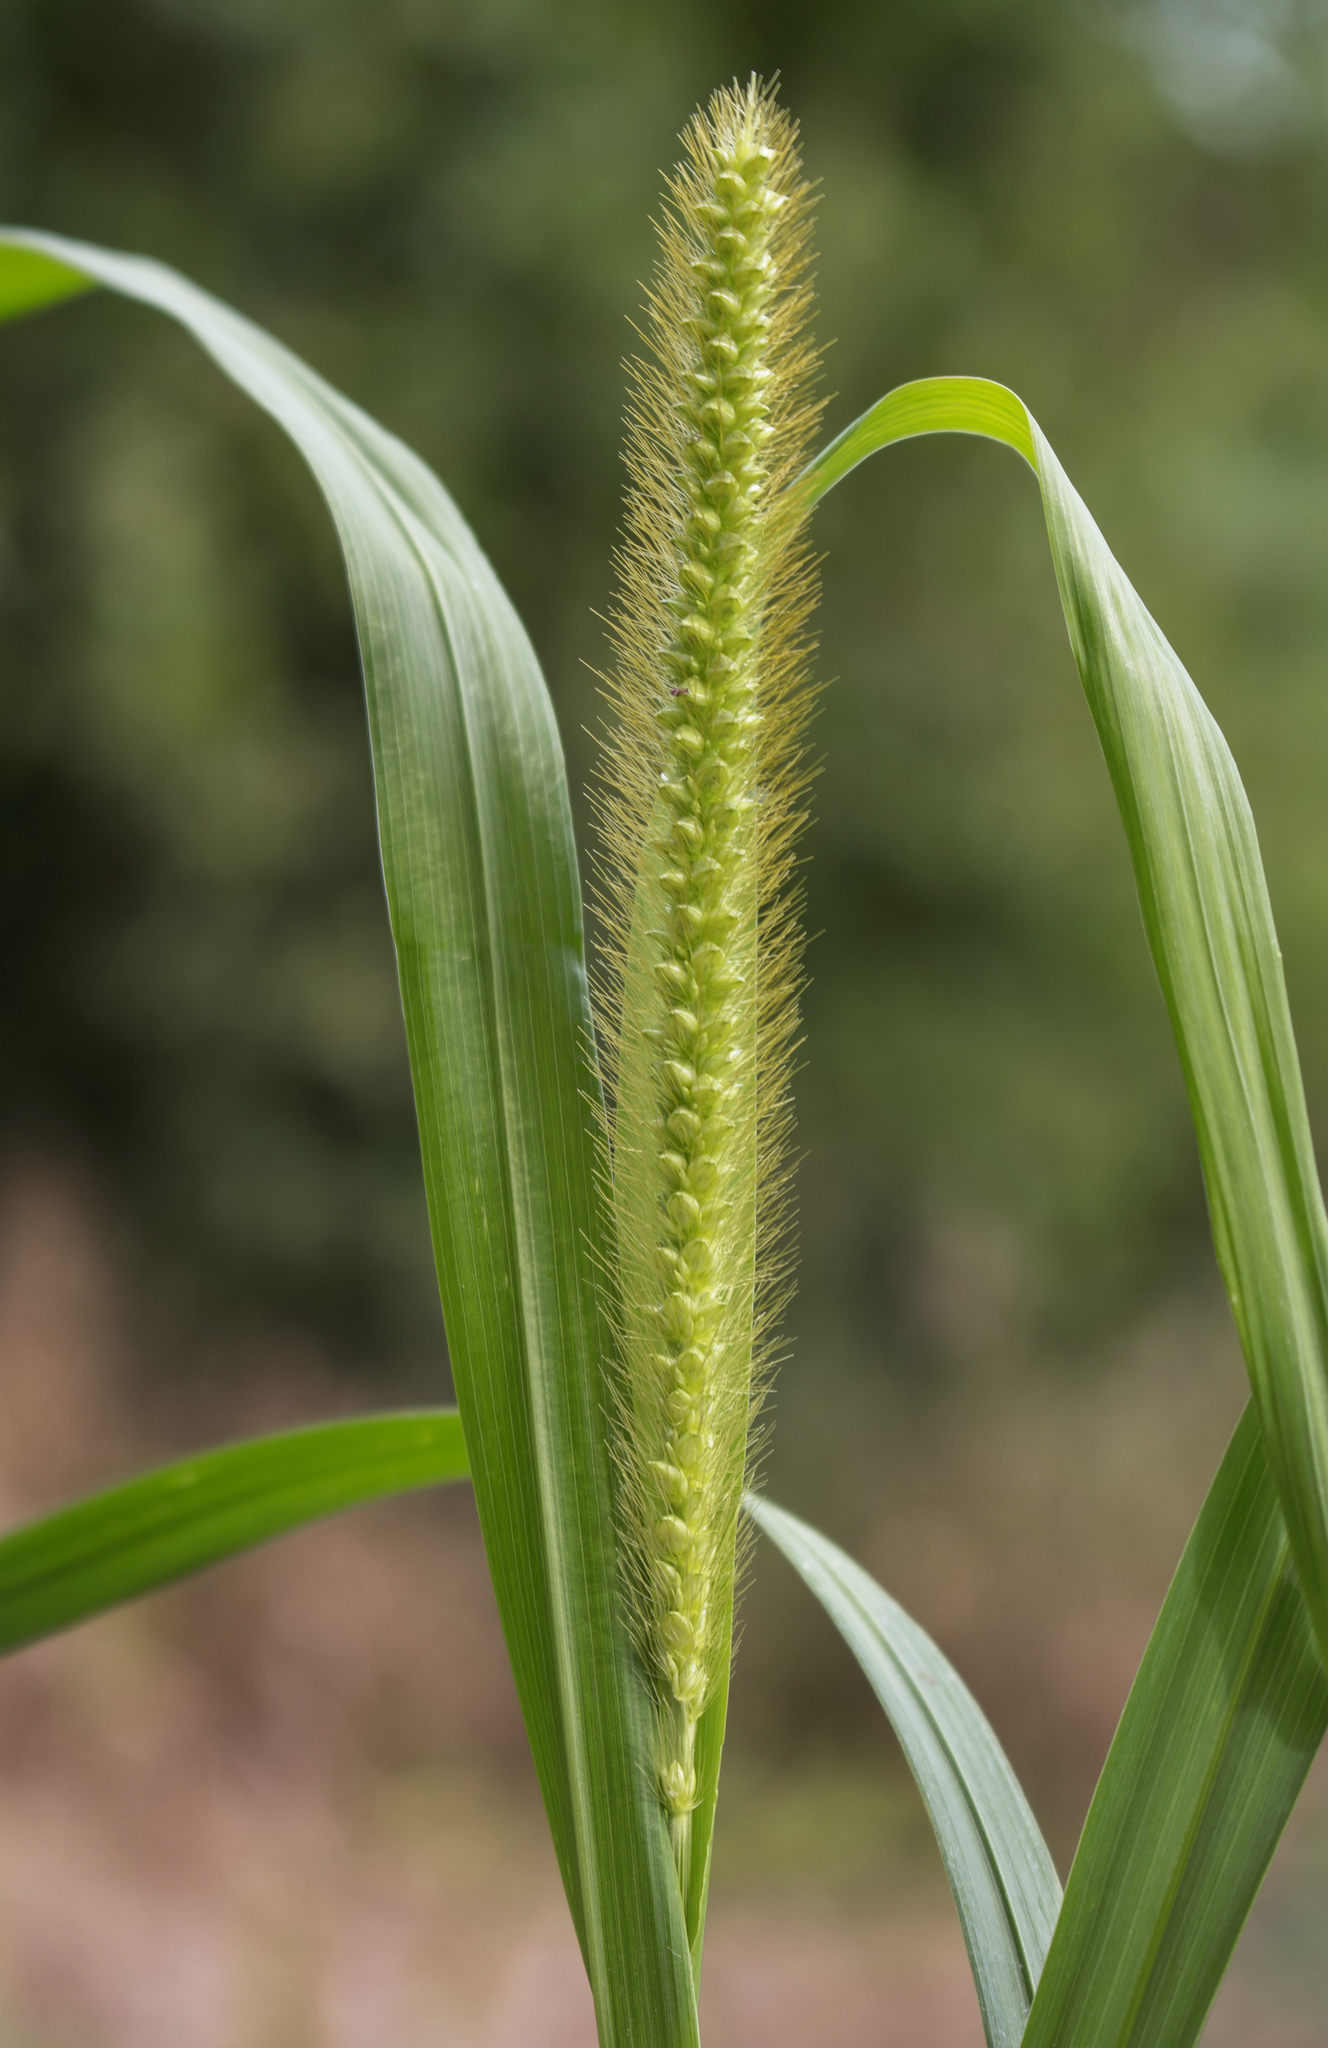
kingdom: Plantae
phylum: Tracheophyta
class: Liliopsida
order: Poales
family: Poaceae
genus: Setaria
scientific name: Setaria pumila
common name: Yellow bristle-grass
